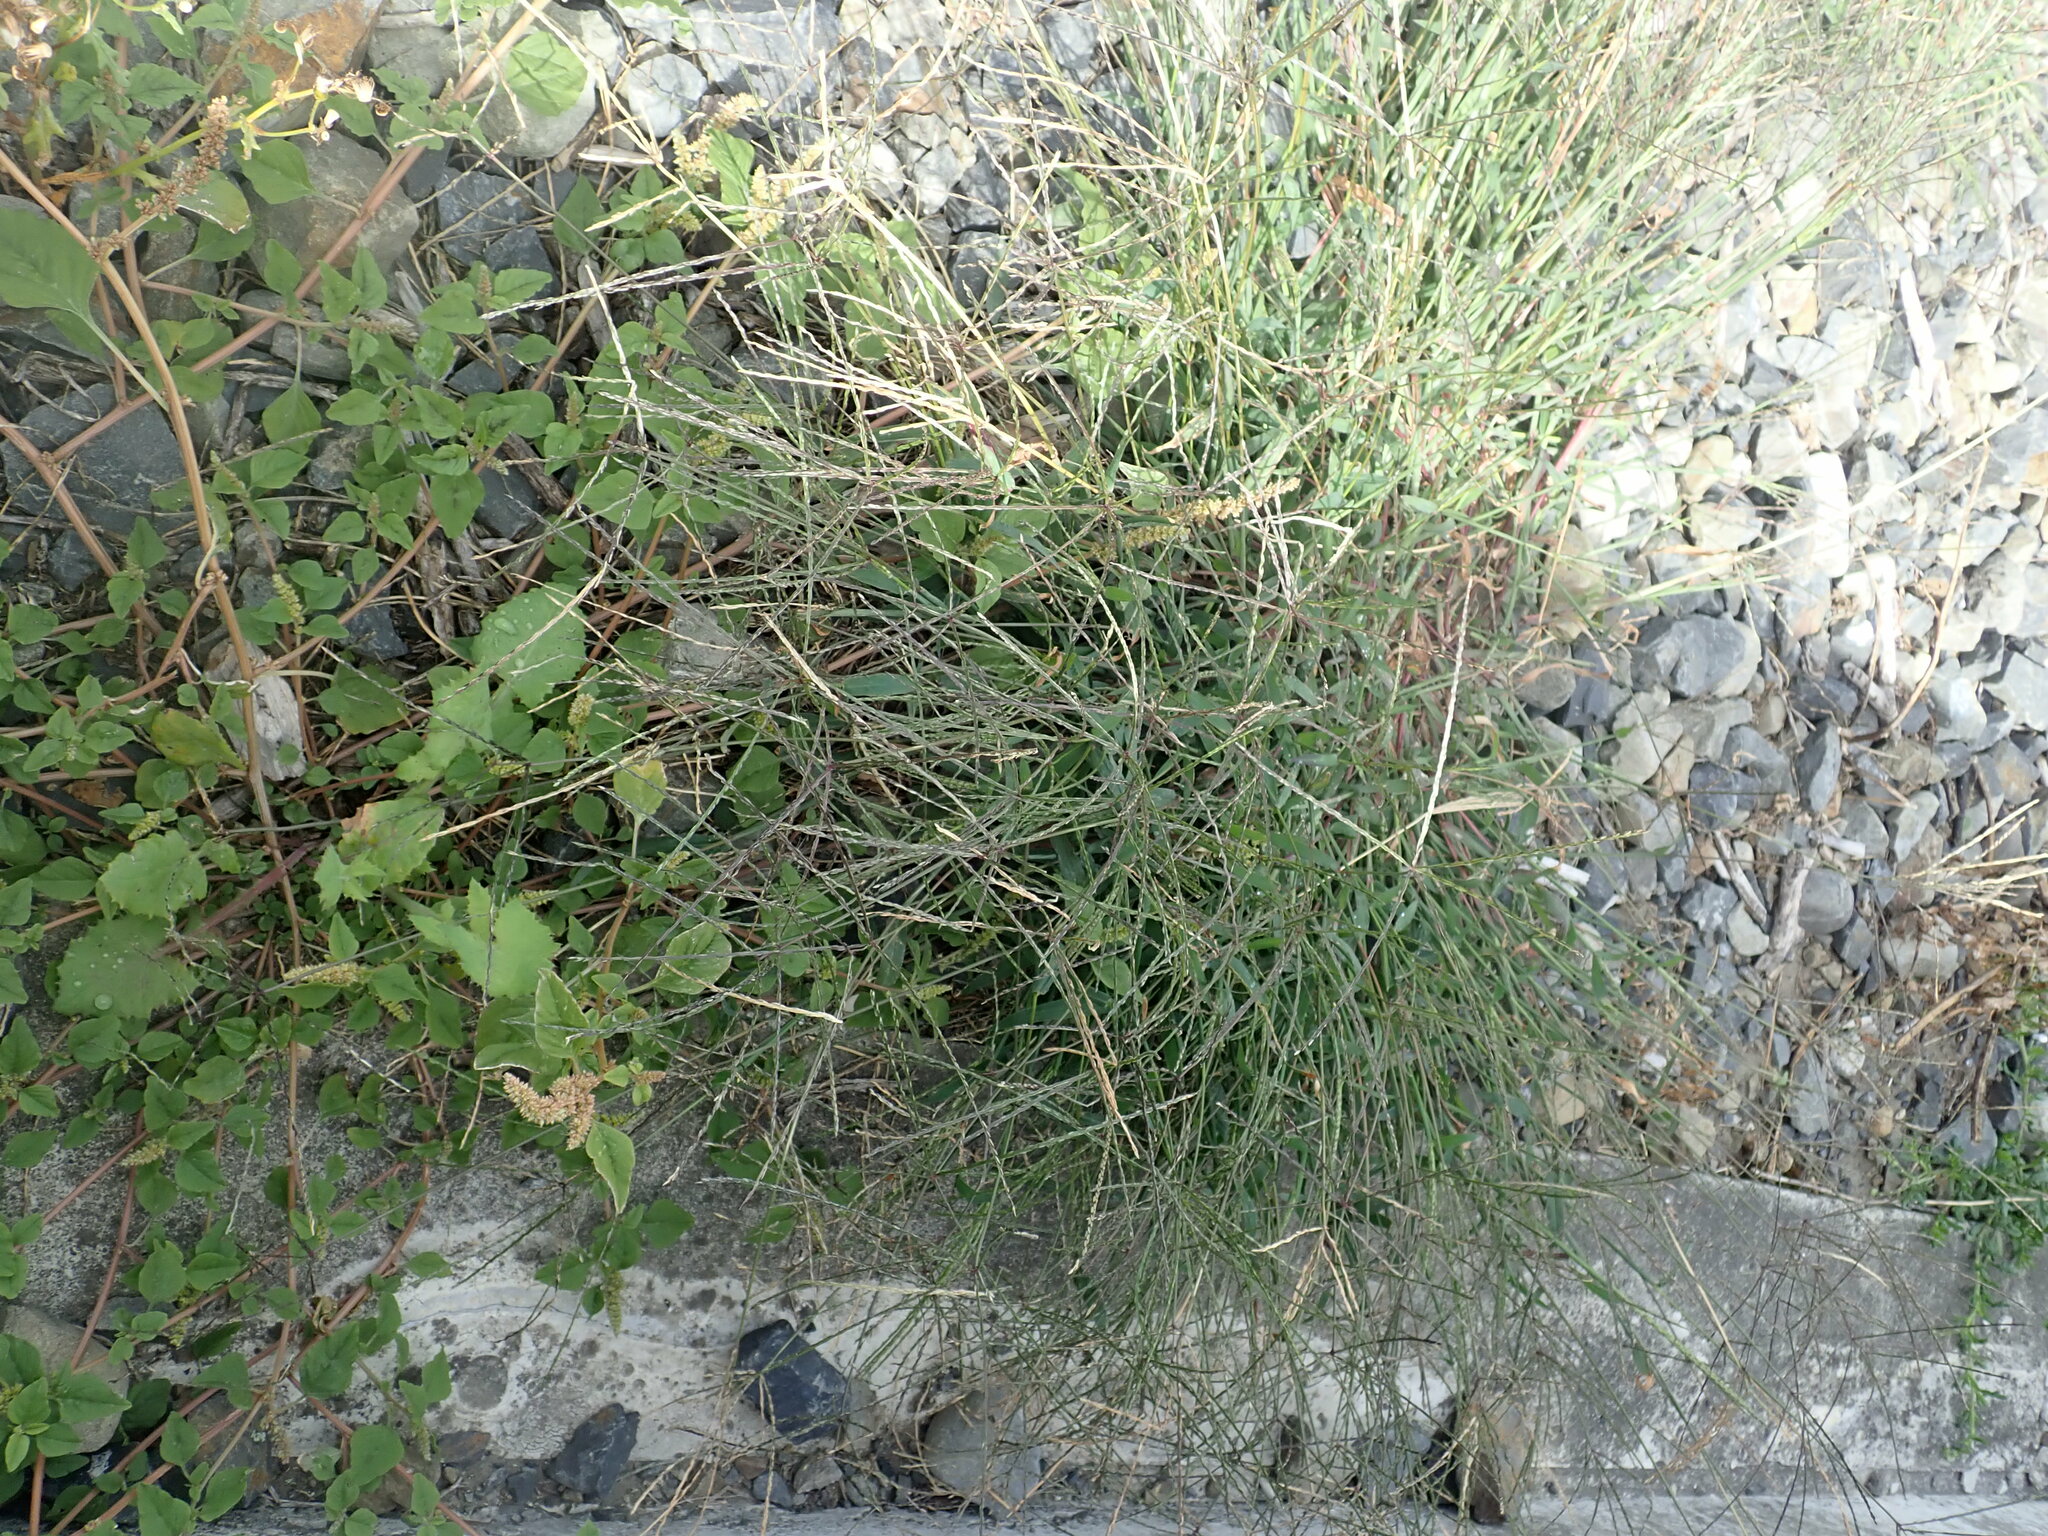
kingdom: Plantae
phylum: Tracheophyta
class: Liliopsida
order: Poales
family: Poaceae
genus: Cynodon
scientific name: Cynodon dactylon
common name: Bermuda grass
